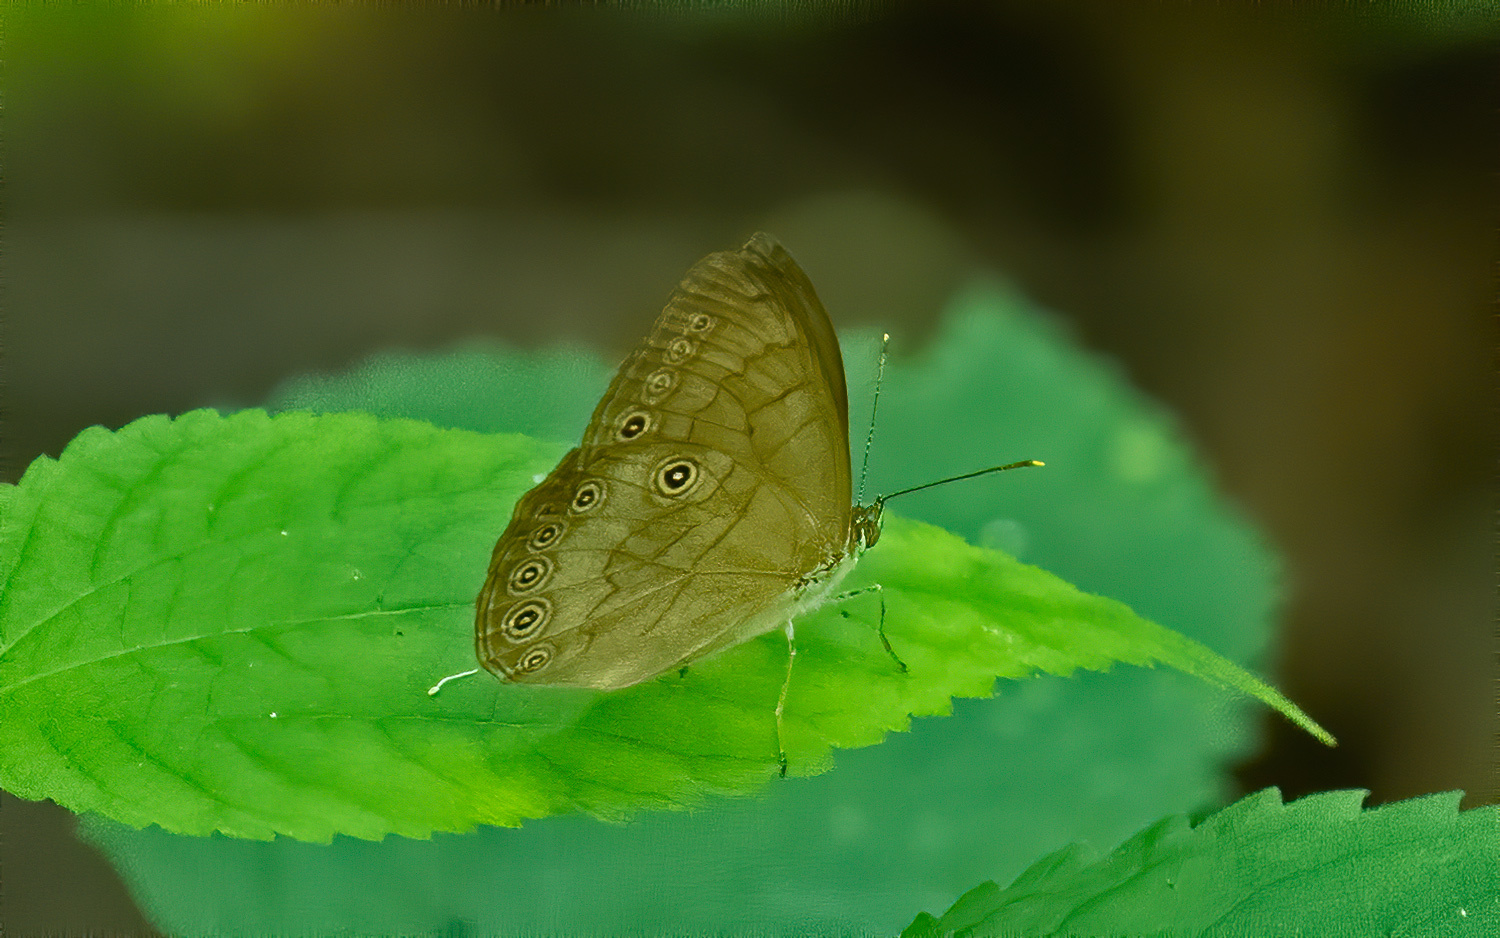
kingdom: Animalia
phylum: Arthropoda
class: Insecta
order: Lepidoptera
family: Nymphalidae
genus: Lethe
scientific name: Lethe eurydice
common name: Eyed brown
